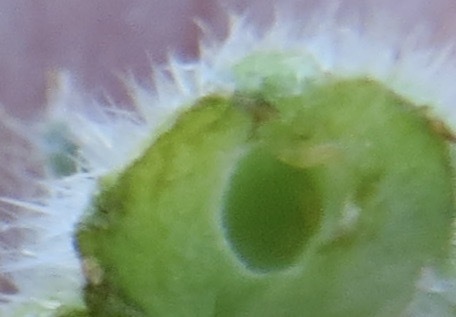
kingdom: Animalia
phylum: Arthropoda
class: Insecta
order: Diptera
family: Cecidomyiidae
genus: Schizomyia
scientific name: Schizomyia macrofila
